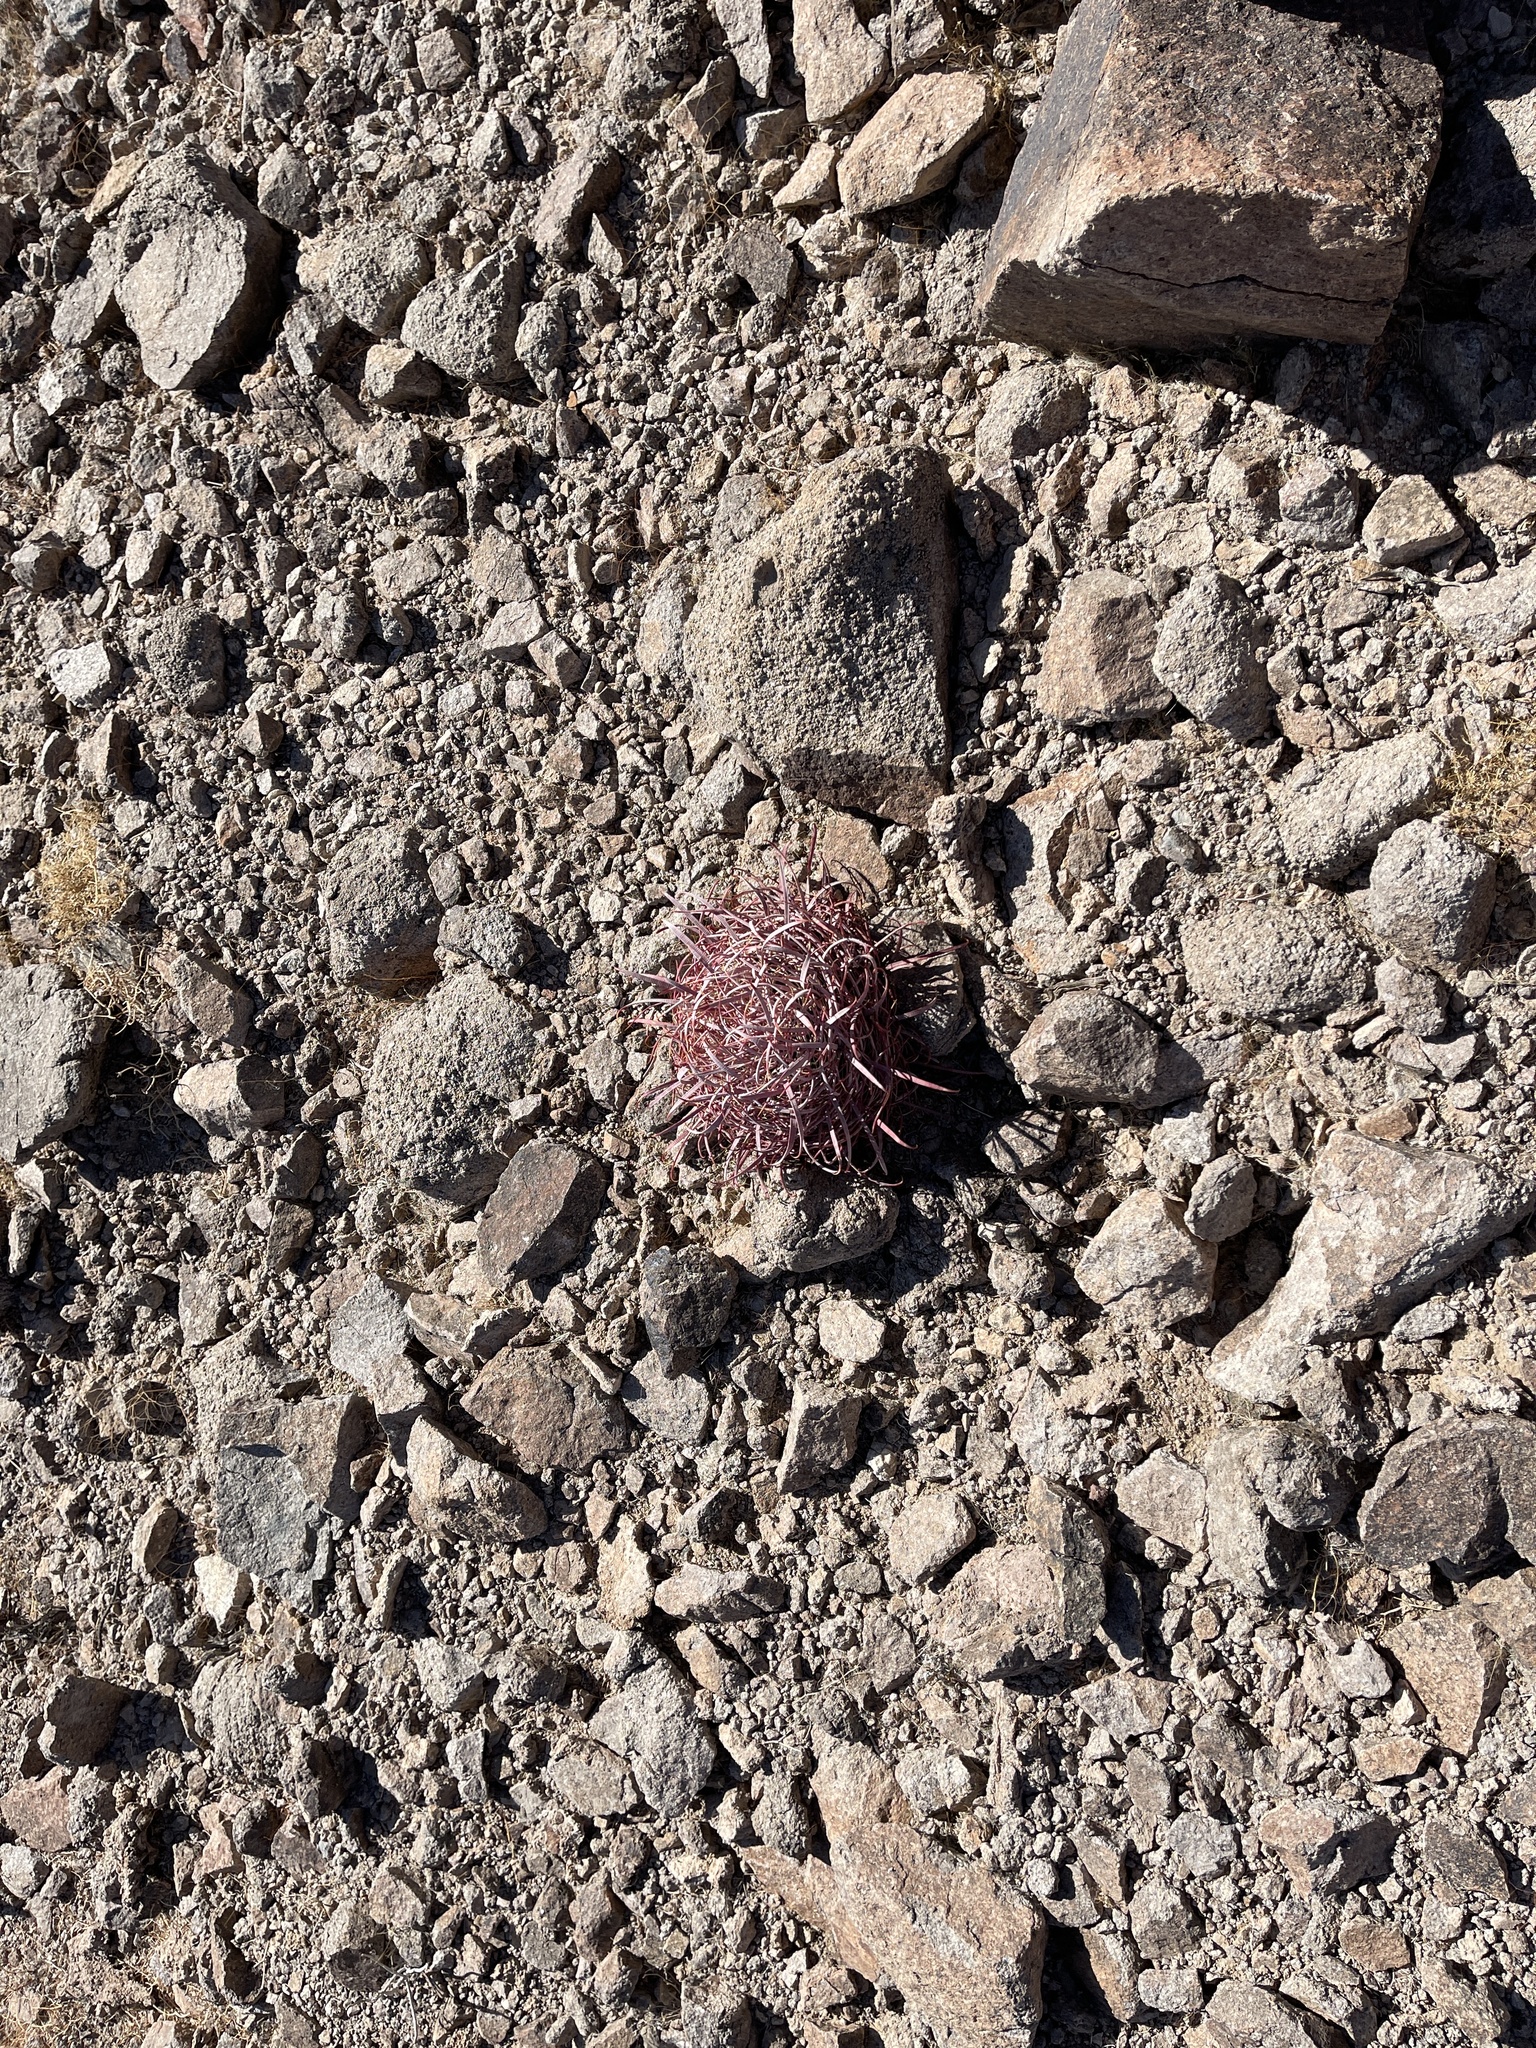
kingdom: Plantae
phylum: Tracheophyta
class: Magnoliopsida
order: Caryophyllales
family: Cactaceae
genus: Ferocactus
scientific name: Ferocactus cylindraceus
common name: California barrel cactus
